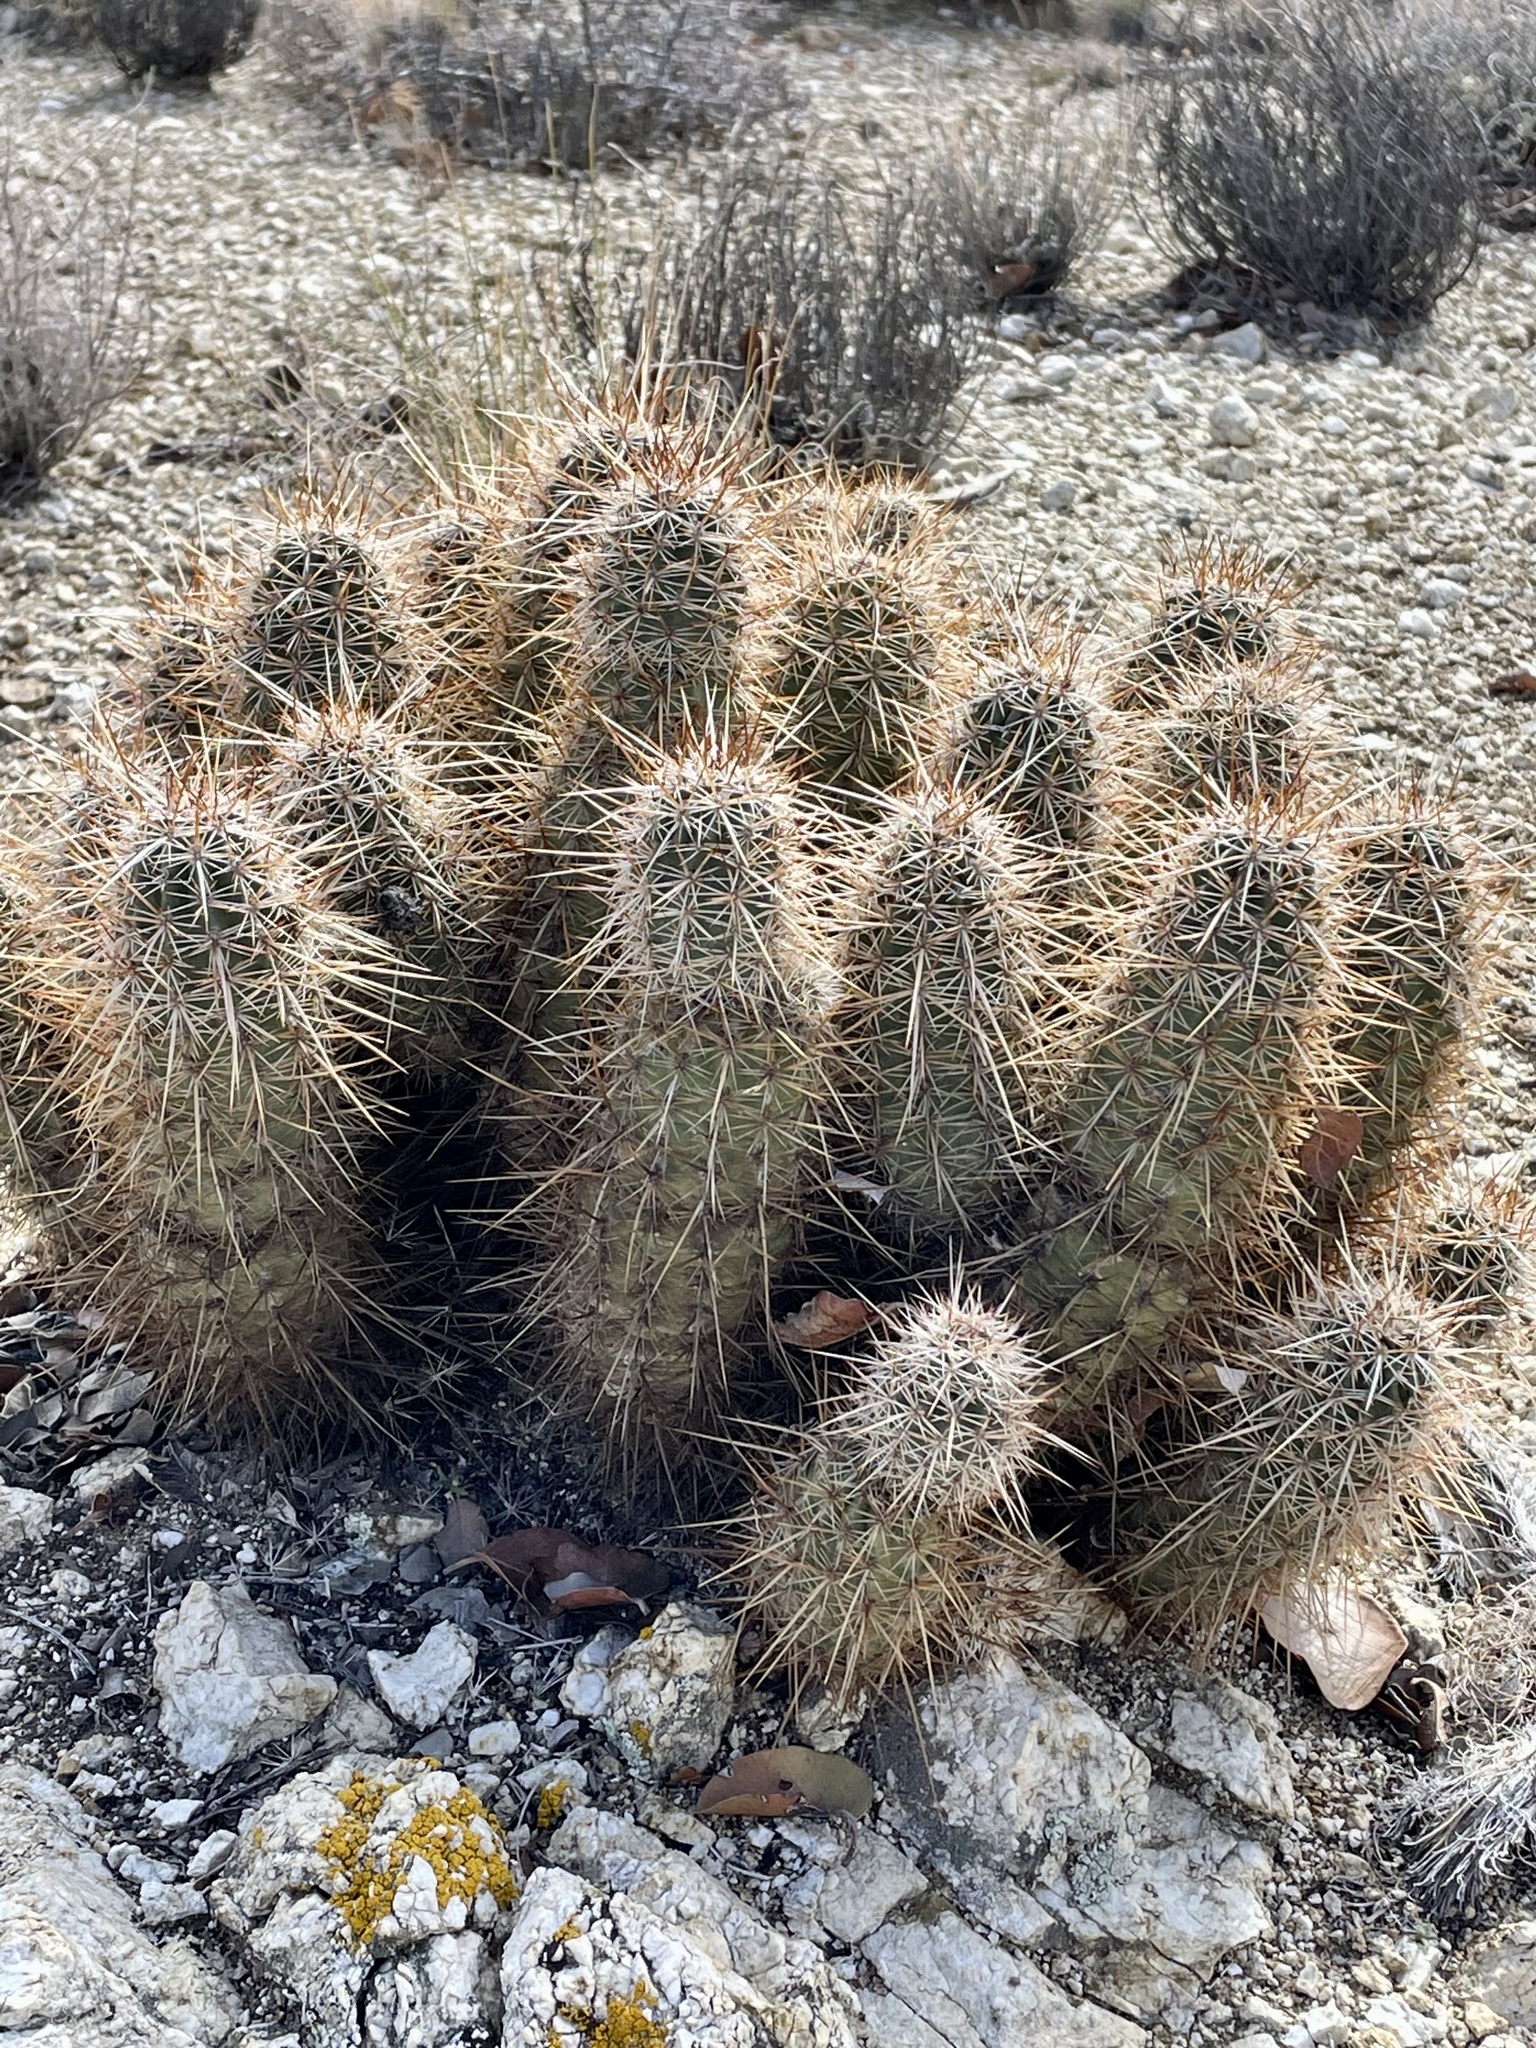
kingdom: Plantae
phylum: Tracheophyta
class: Magnoliopsida
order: Caryophyllales
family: Cactaceae
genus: Echinocereus
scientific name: Echinocereus engelmannii
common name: Engelmann's hedgehog cactus
